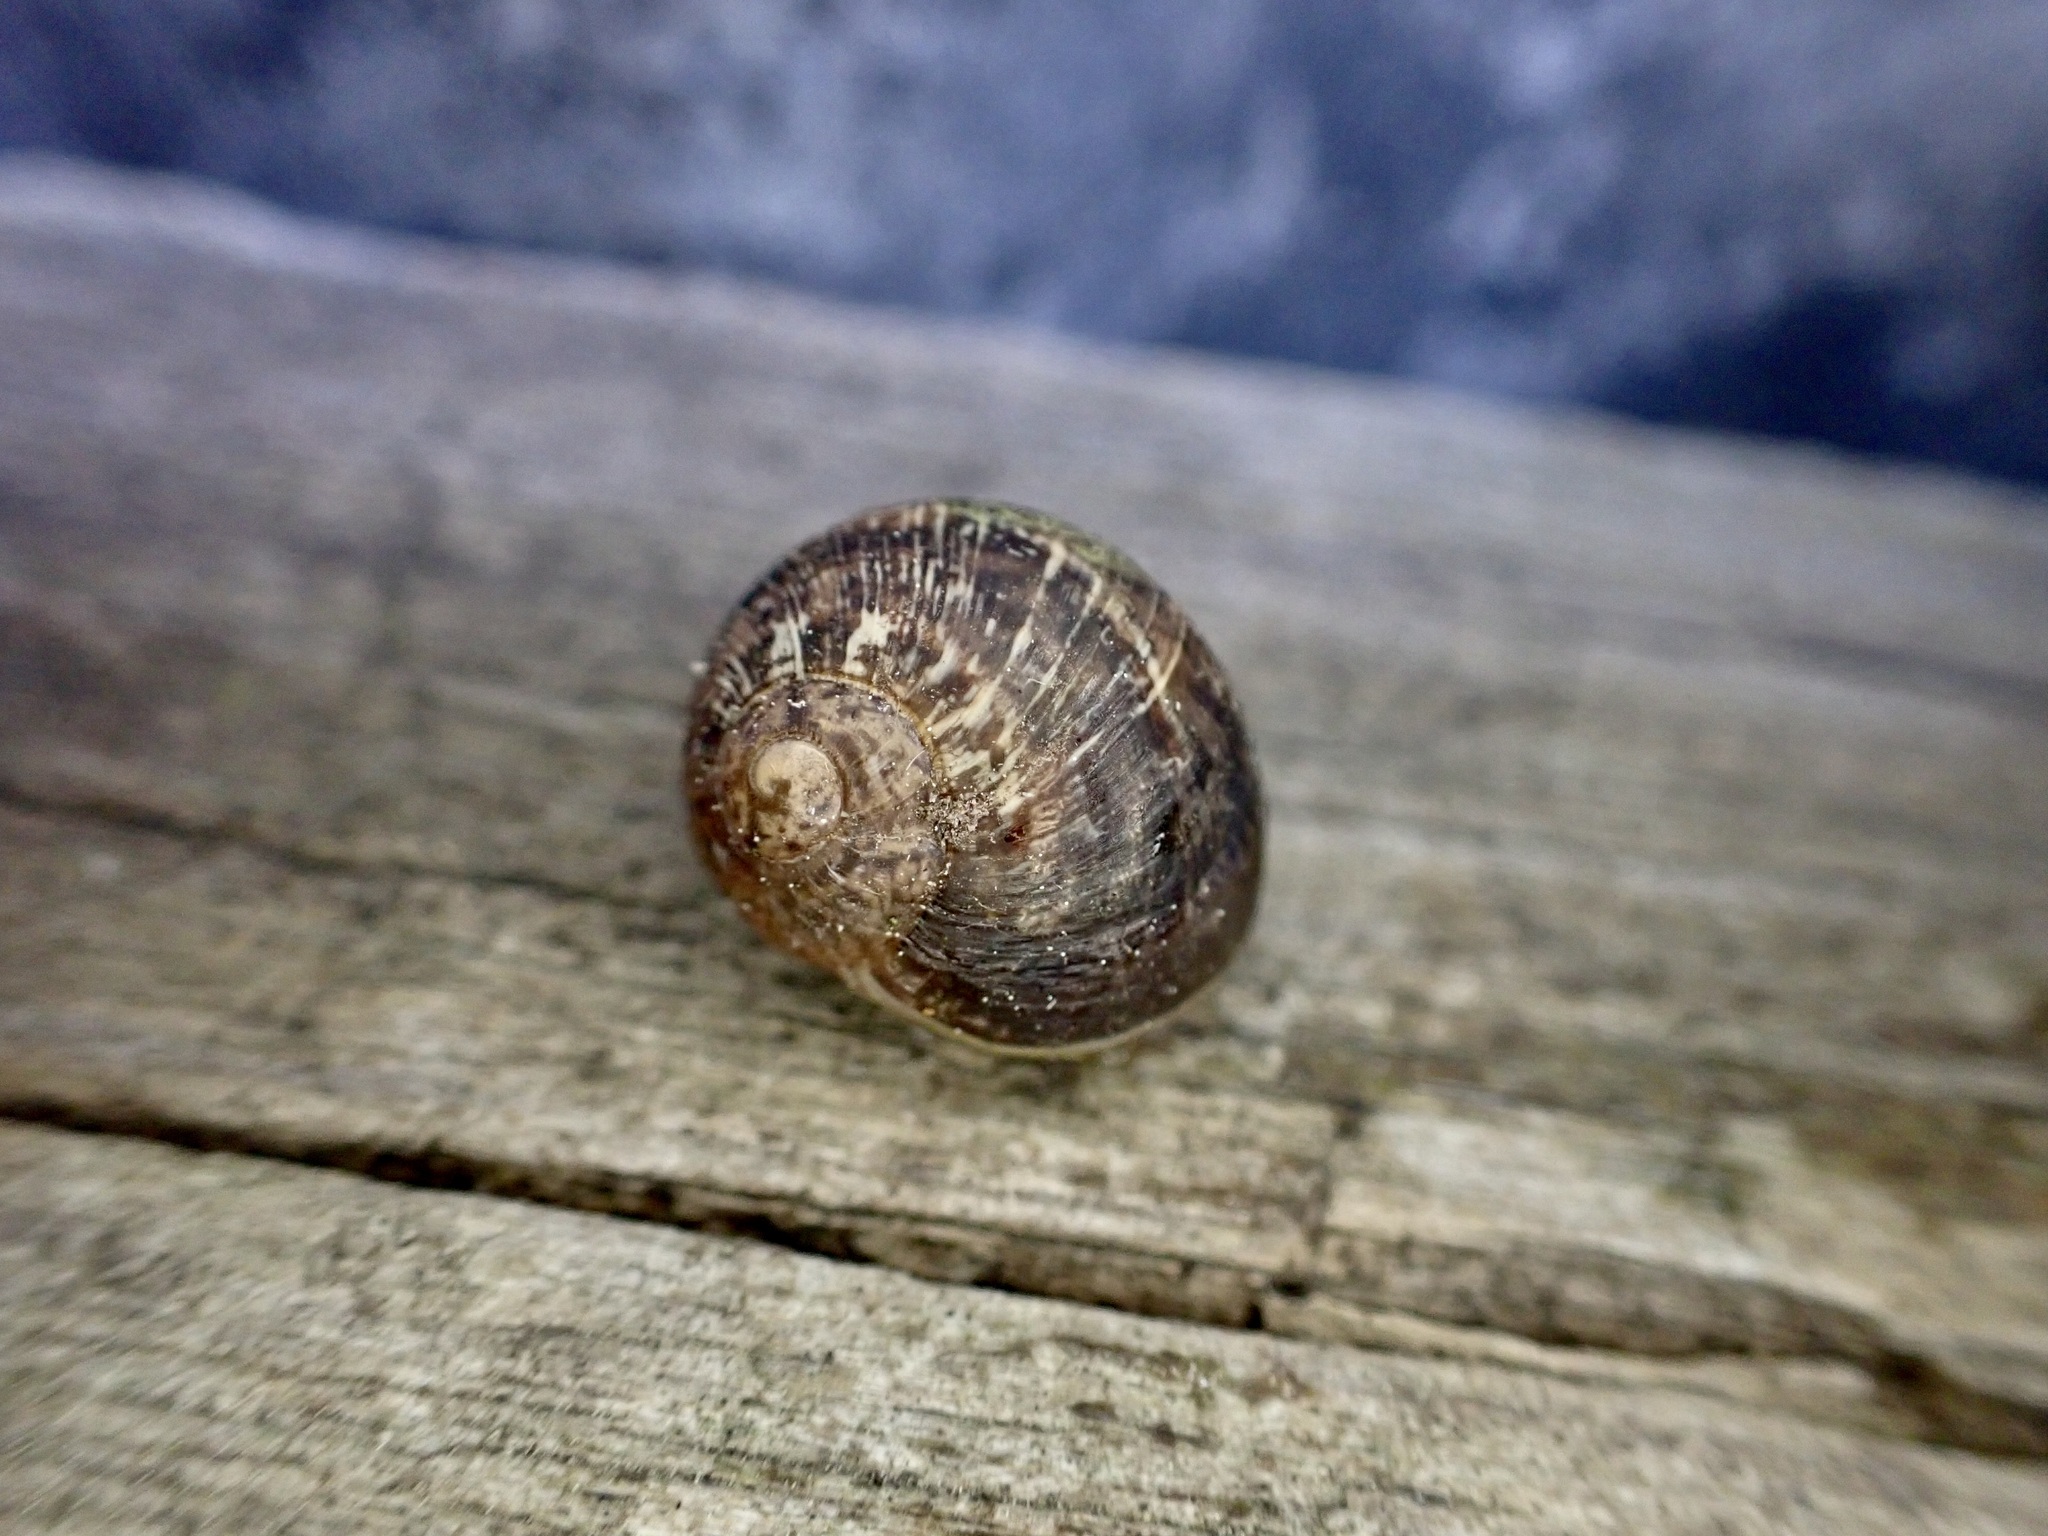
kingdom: Animalia
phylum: Mollusca
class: Gastropoda
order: Stylommatophora
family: Helicidae
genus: Cornu
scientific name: Cornu aspersum
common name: Brown garden snail
